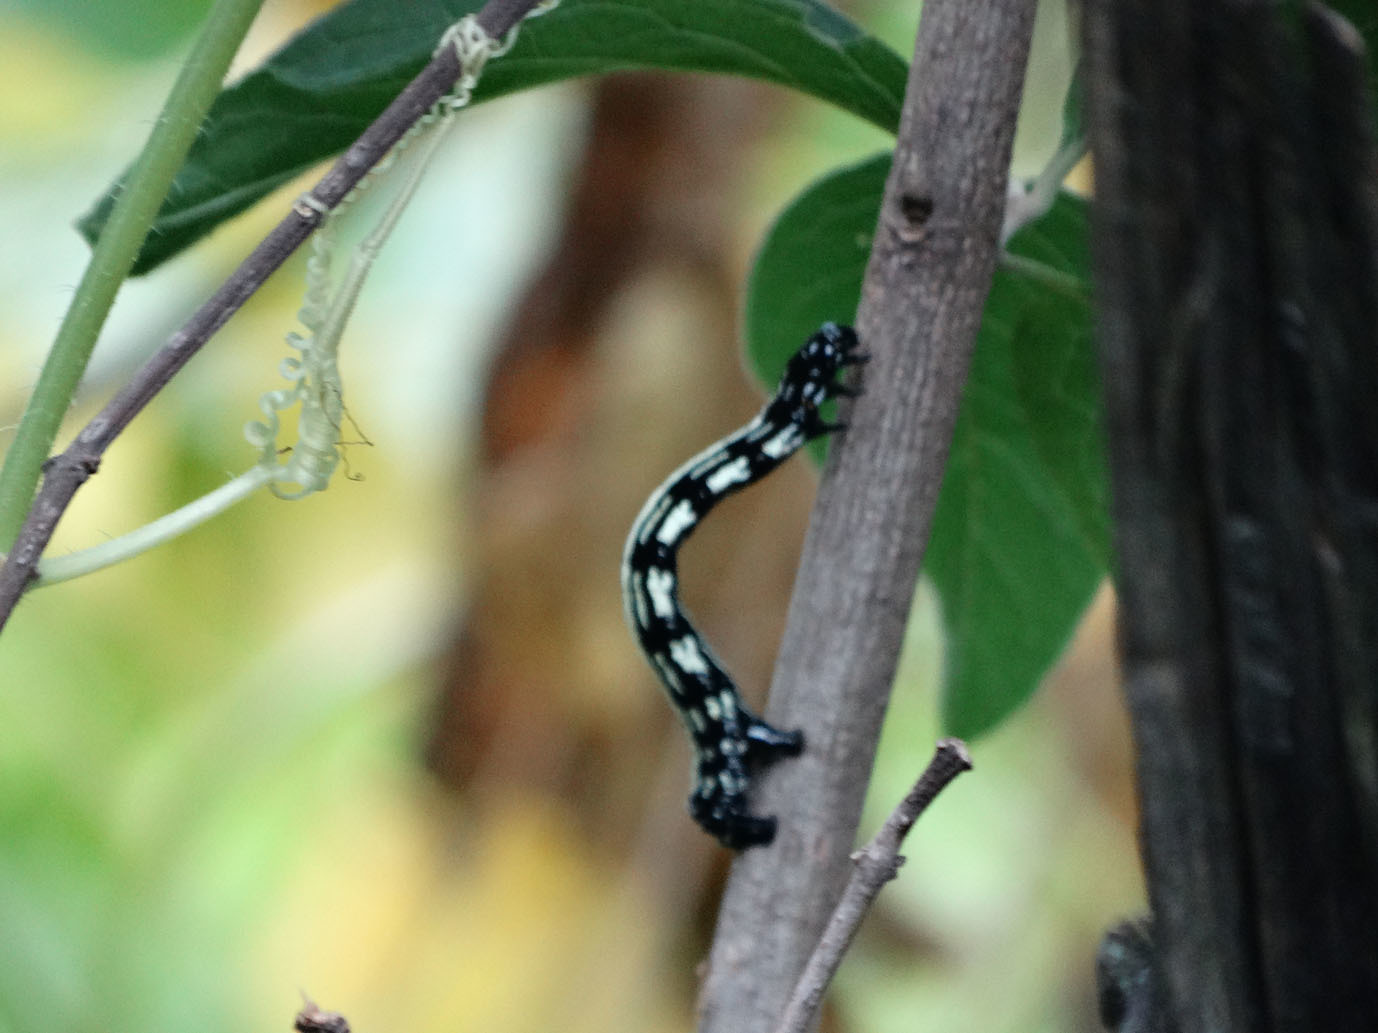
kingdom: Animalia
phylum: Arthropoda
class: Insecta
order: Lepidoptera
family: Geometridae
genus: Acronyctodes
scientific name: Acronyctodes mexicanaria
